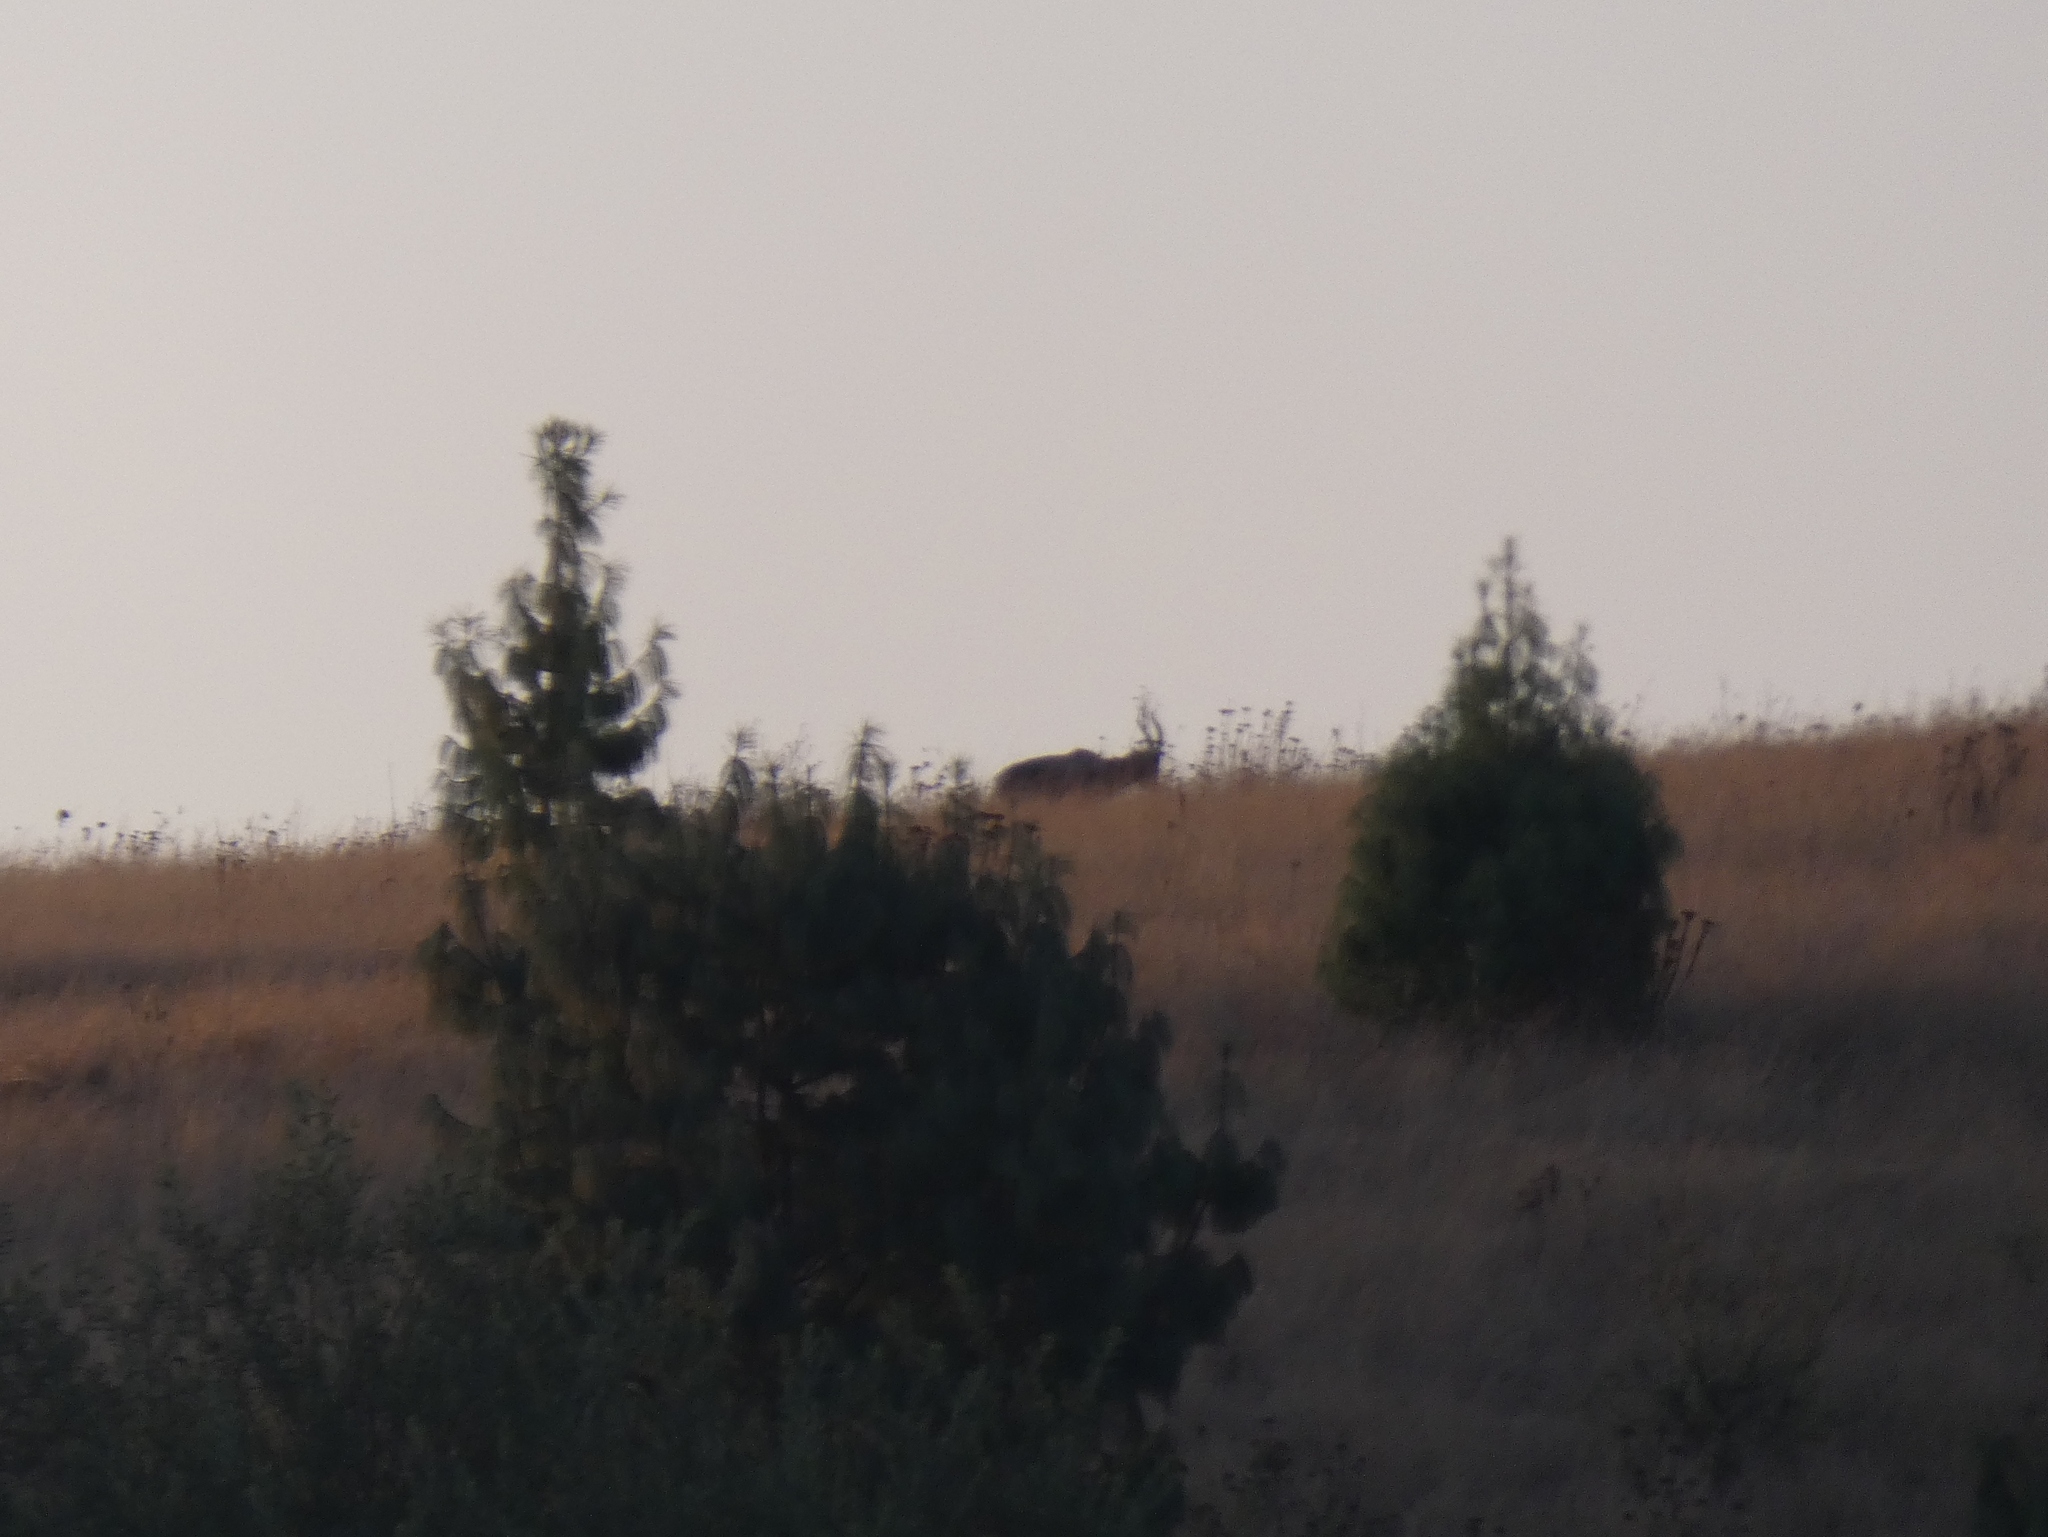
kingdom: Animalia
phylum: Chordata
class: Mammalia
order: Artiodactyla
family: Bovidae
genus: Damaliscus
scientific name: Damaliscus pygargus
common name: Bontebok
